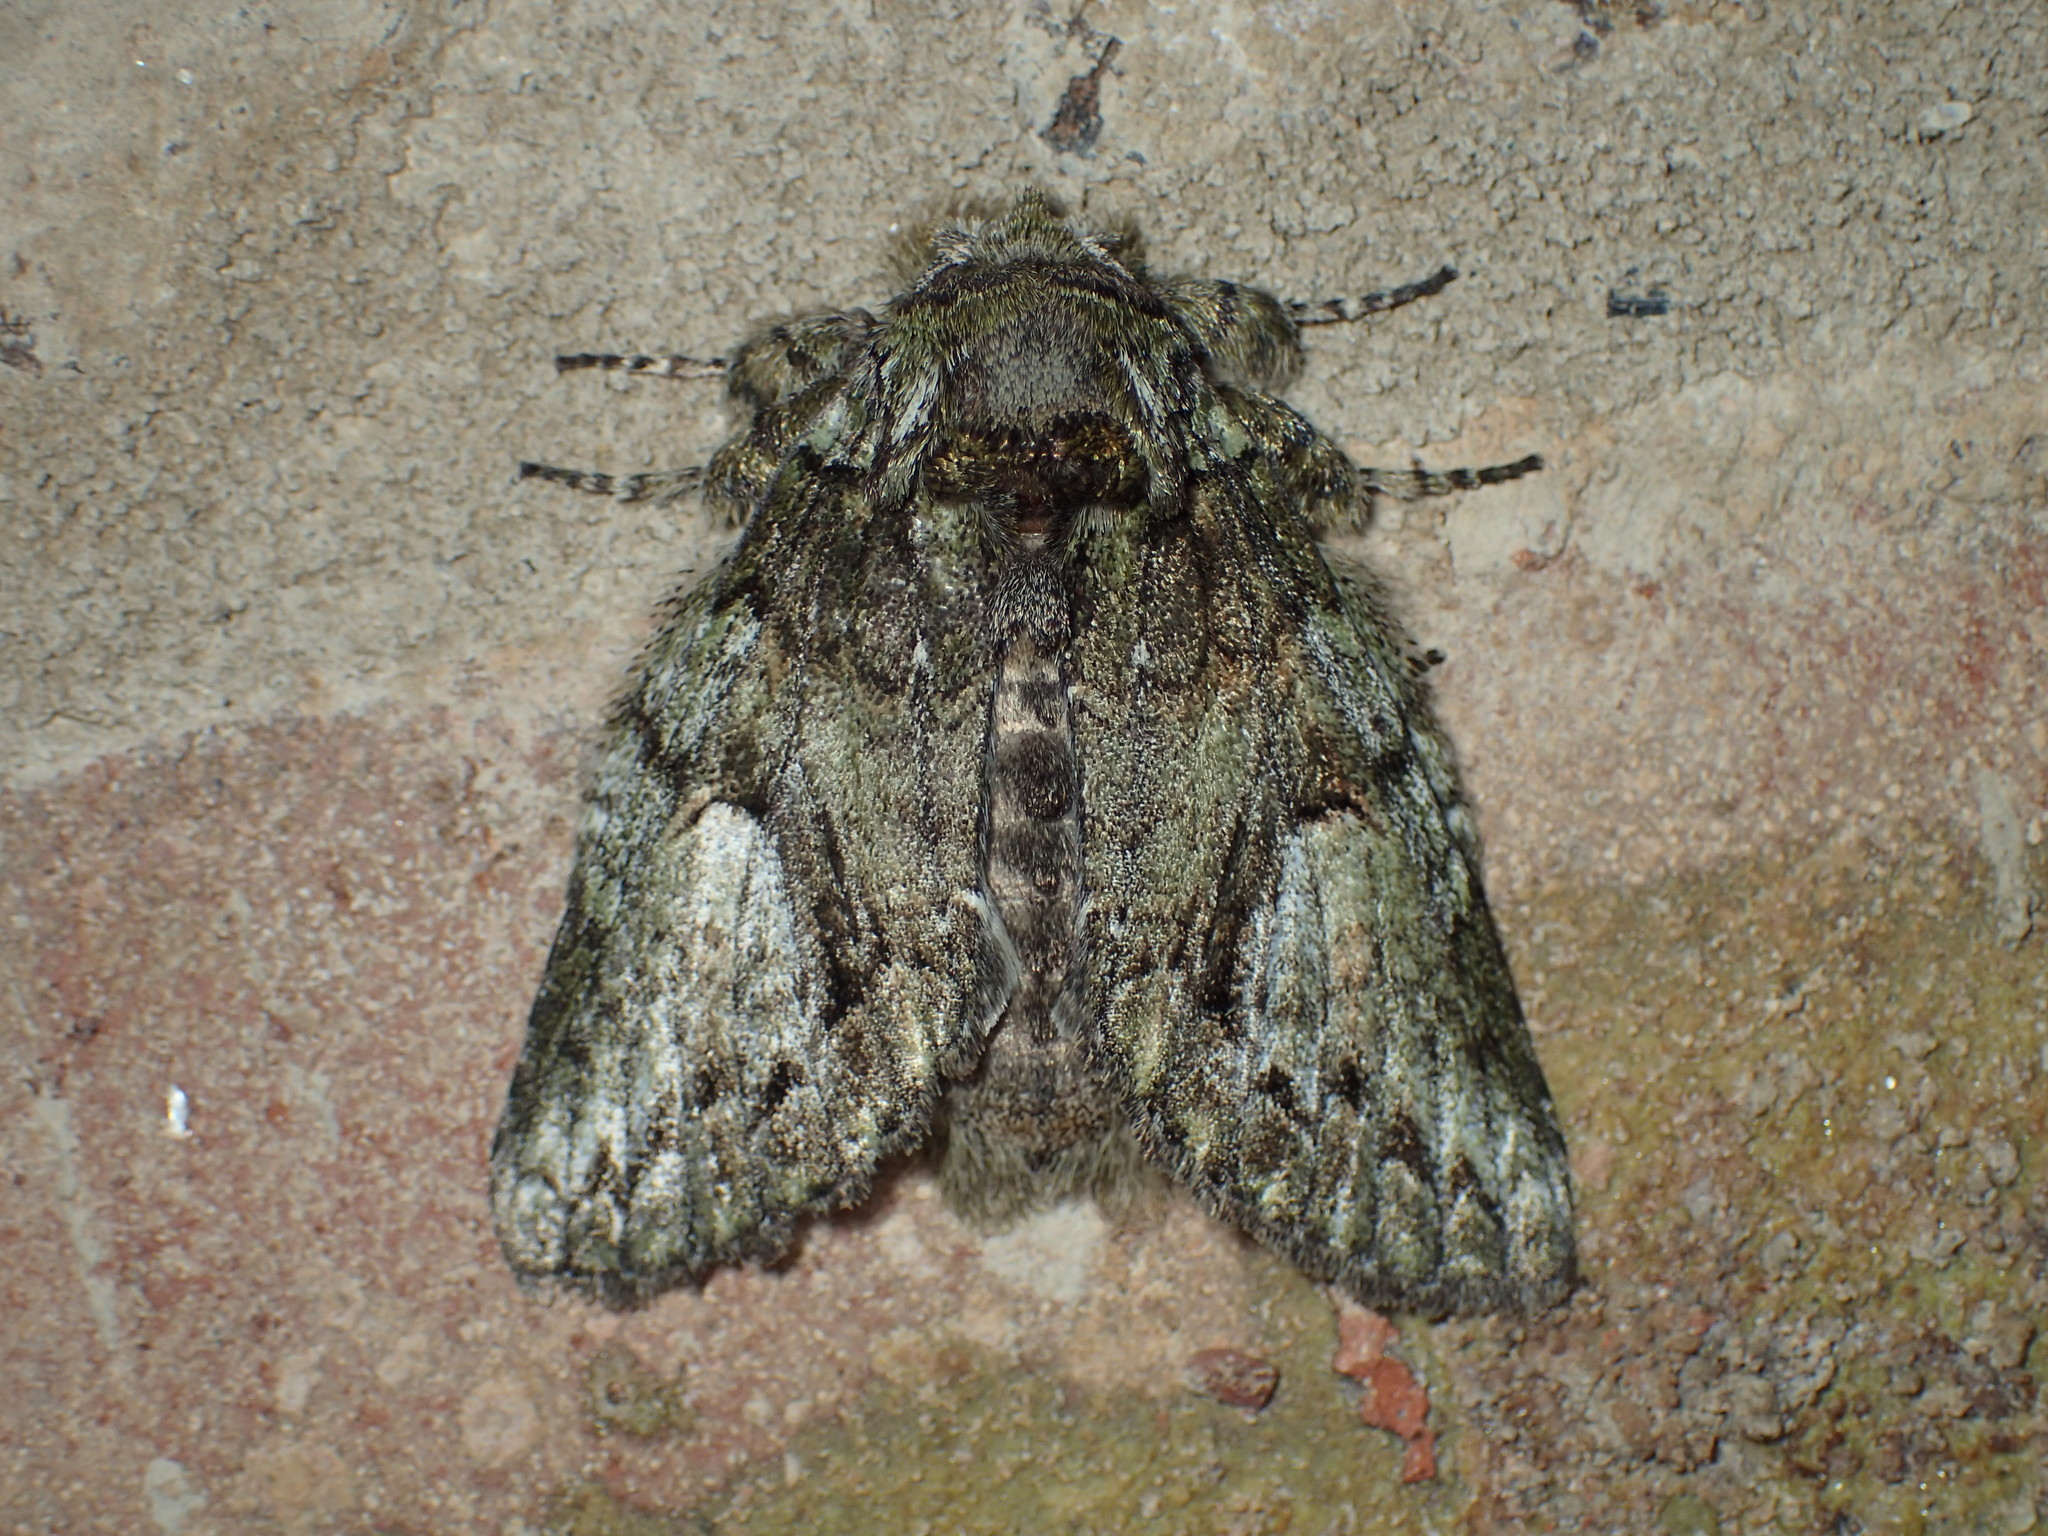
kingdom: Animalia
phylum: Arthropoda
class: Insecta
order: Lepidoptera
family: Notodontidae
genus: Heterocampa
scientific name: Heterocampa
